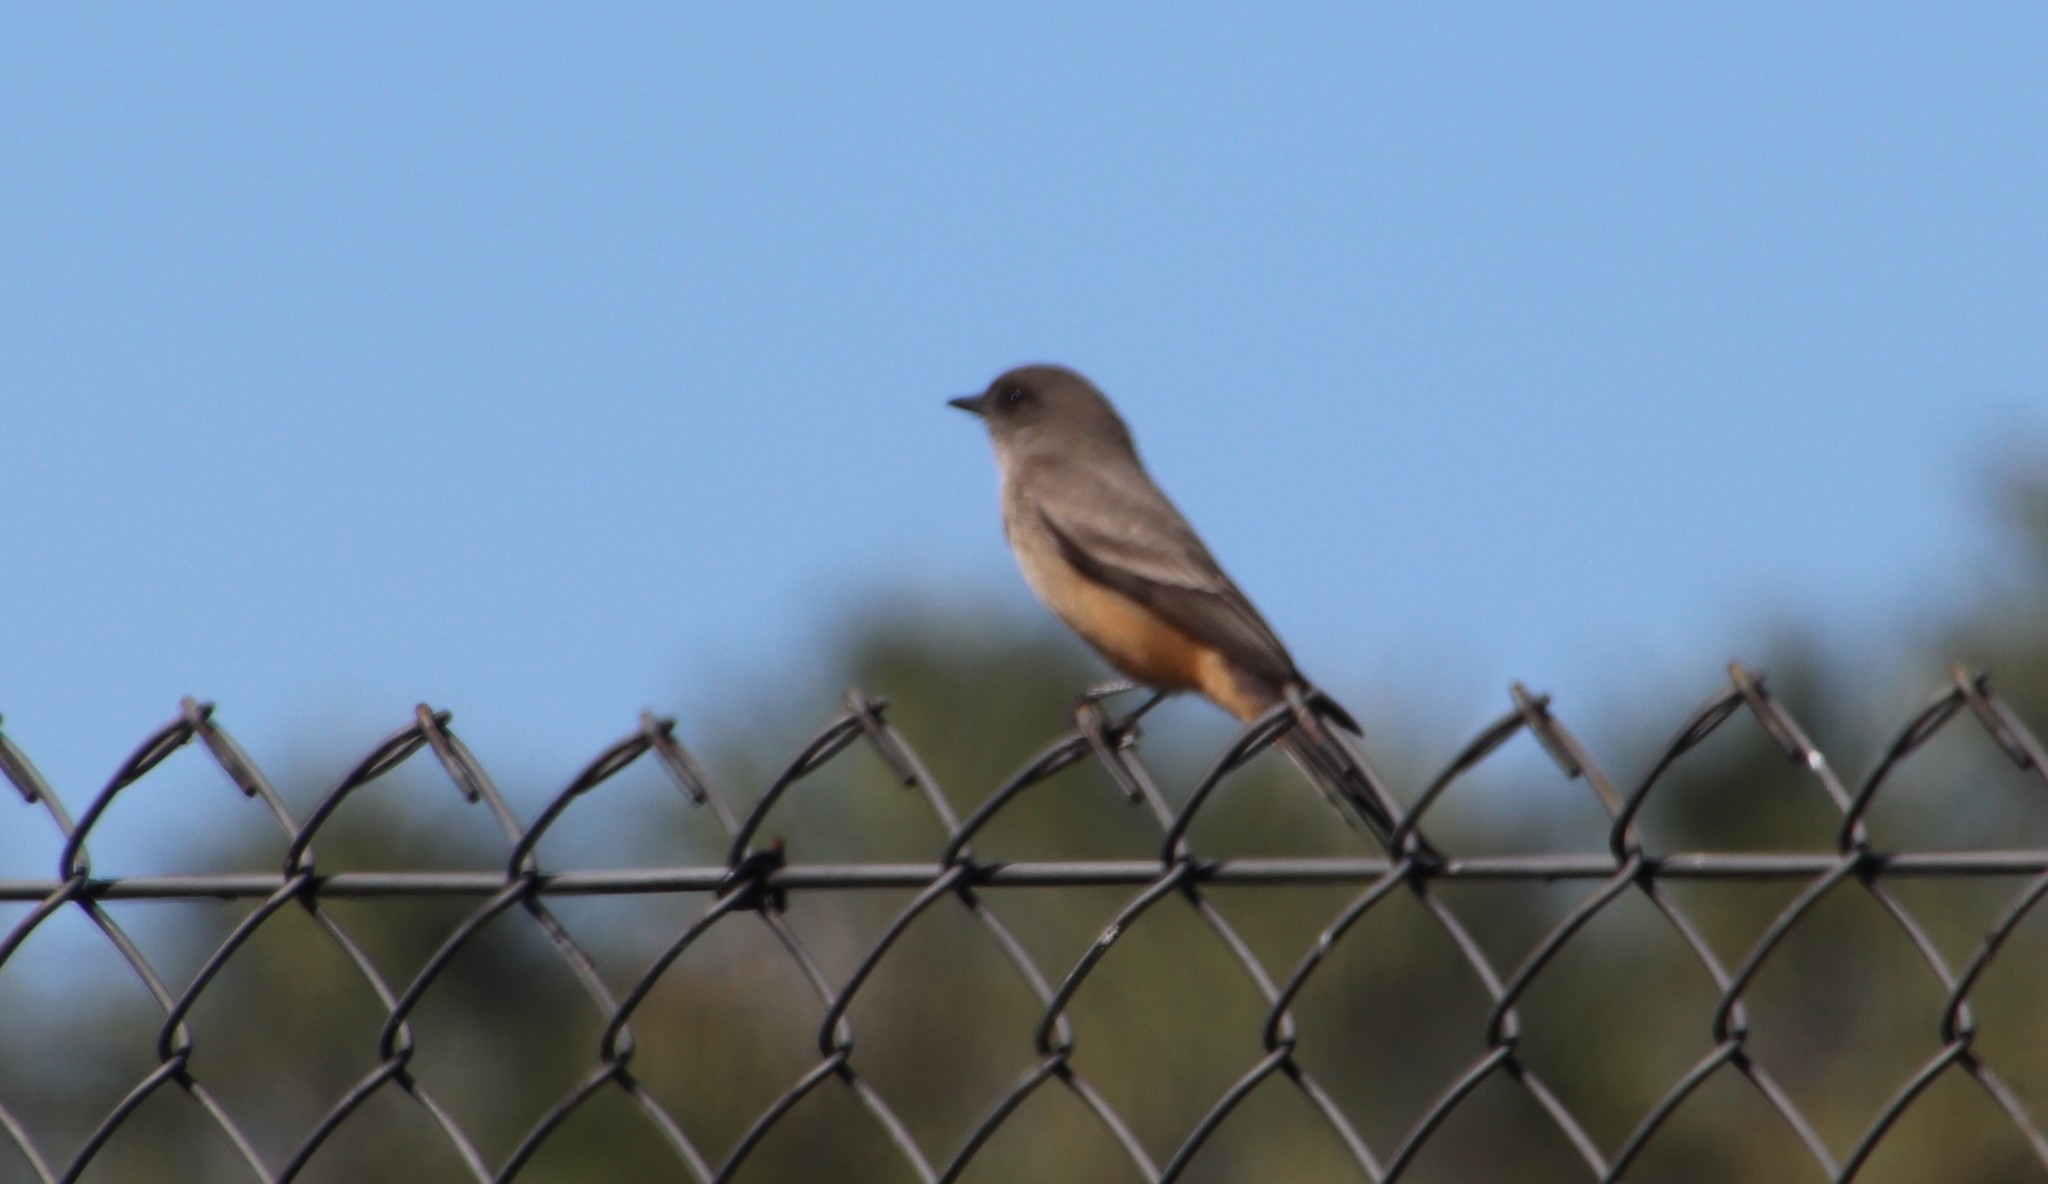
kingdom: Animalia
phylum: Chordata
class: Aves
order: Passeriformes
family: Tyrannidae
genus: Sayornis
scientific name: Sayornis saya
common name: Say's phoebe
